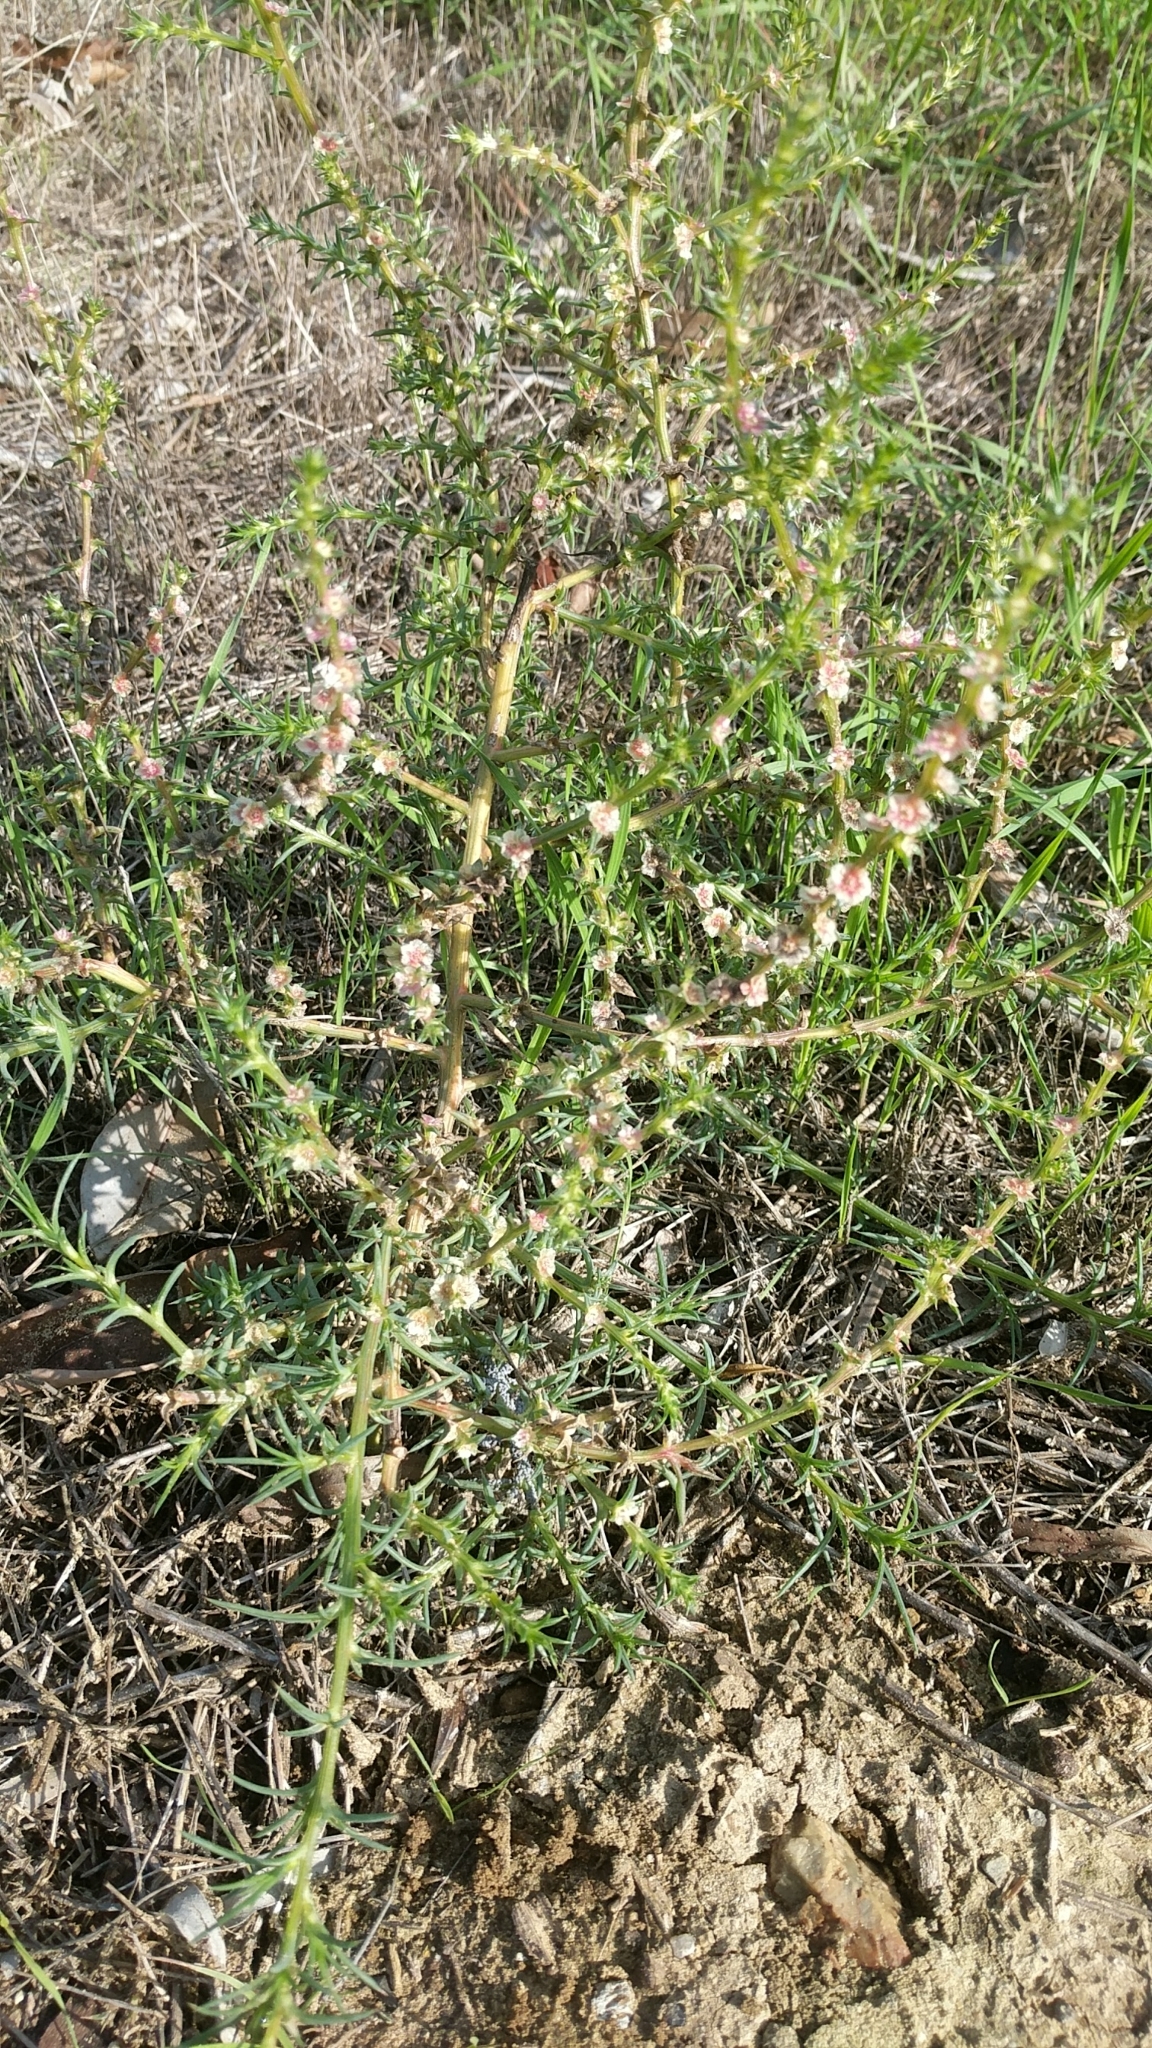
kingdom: Plantae
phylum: Tracheophyta
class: Magnoliopsida
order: Caryophyllales
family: Amaranthaceae
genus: Salsola
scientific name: Salsola australis
